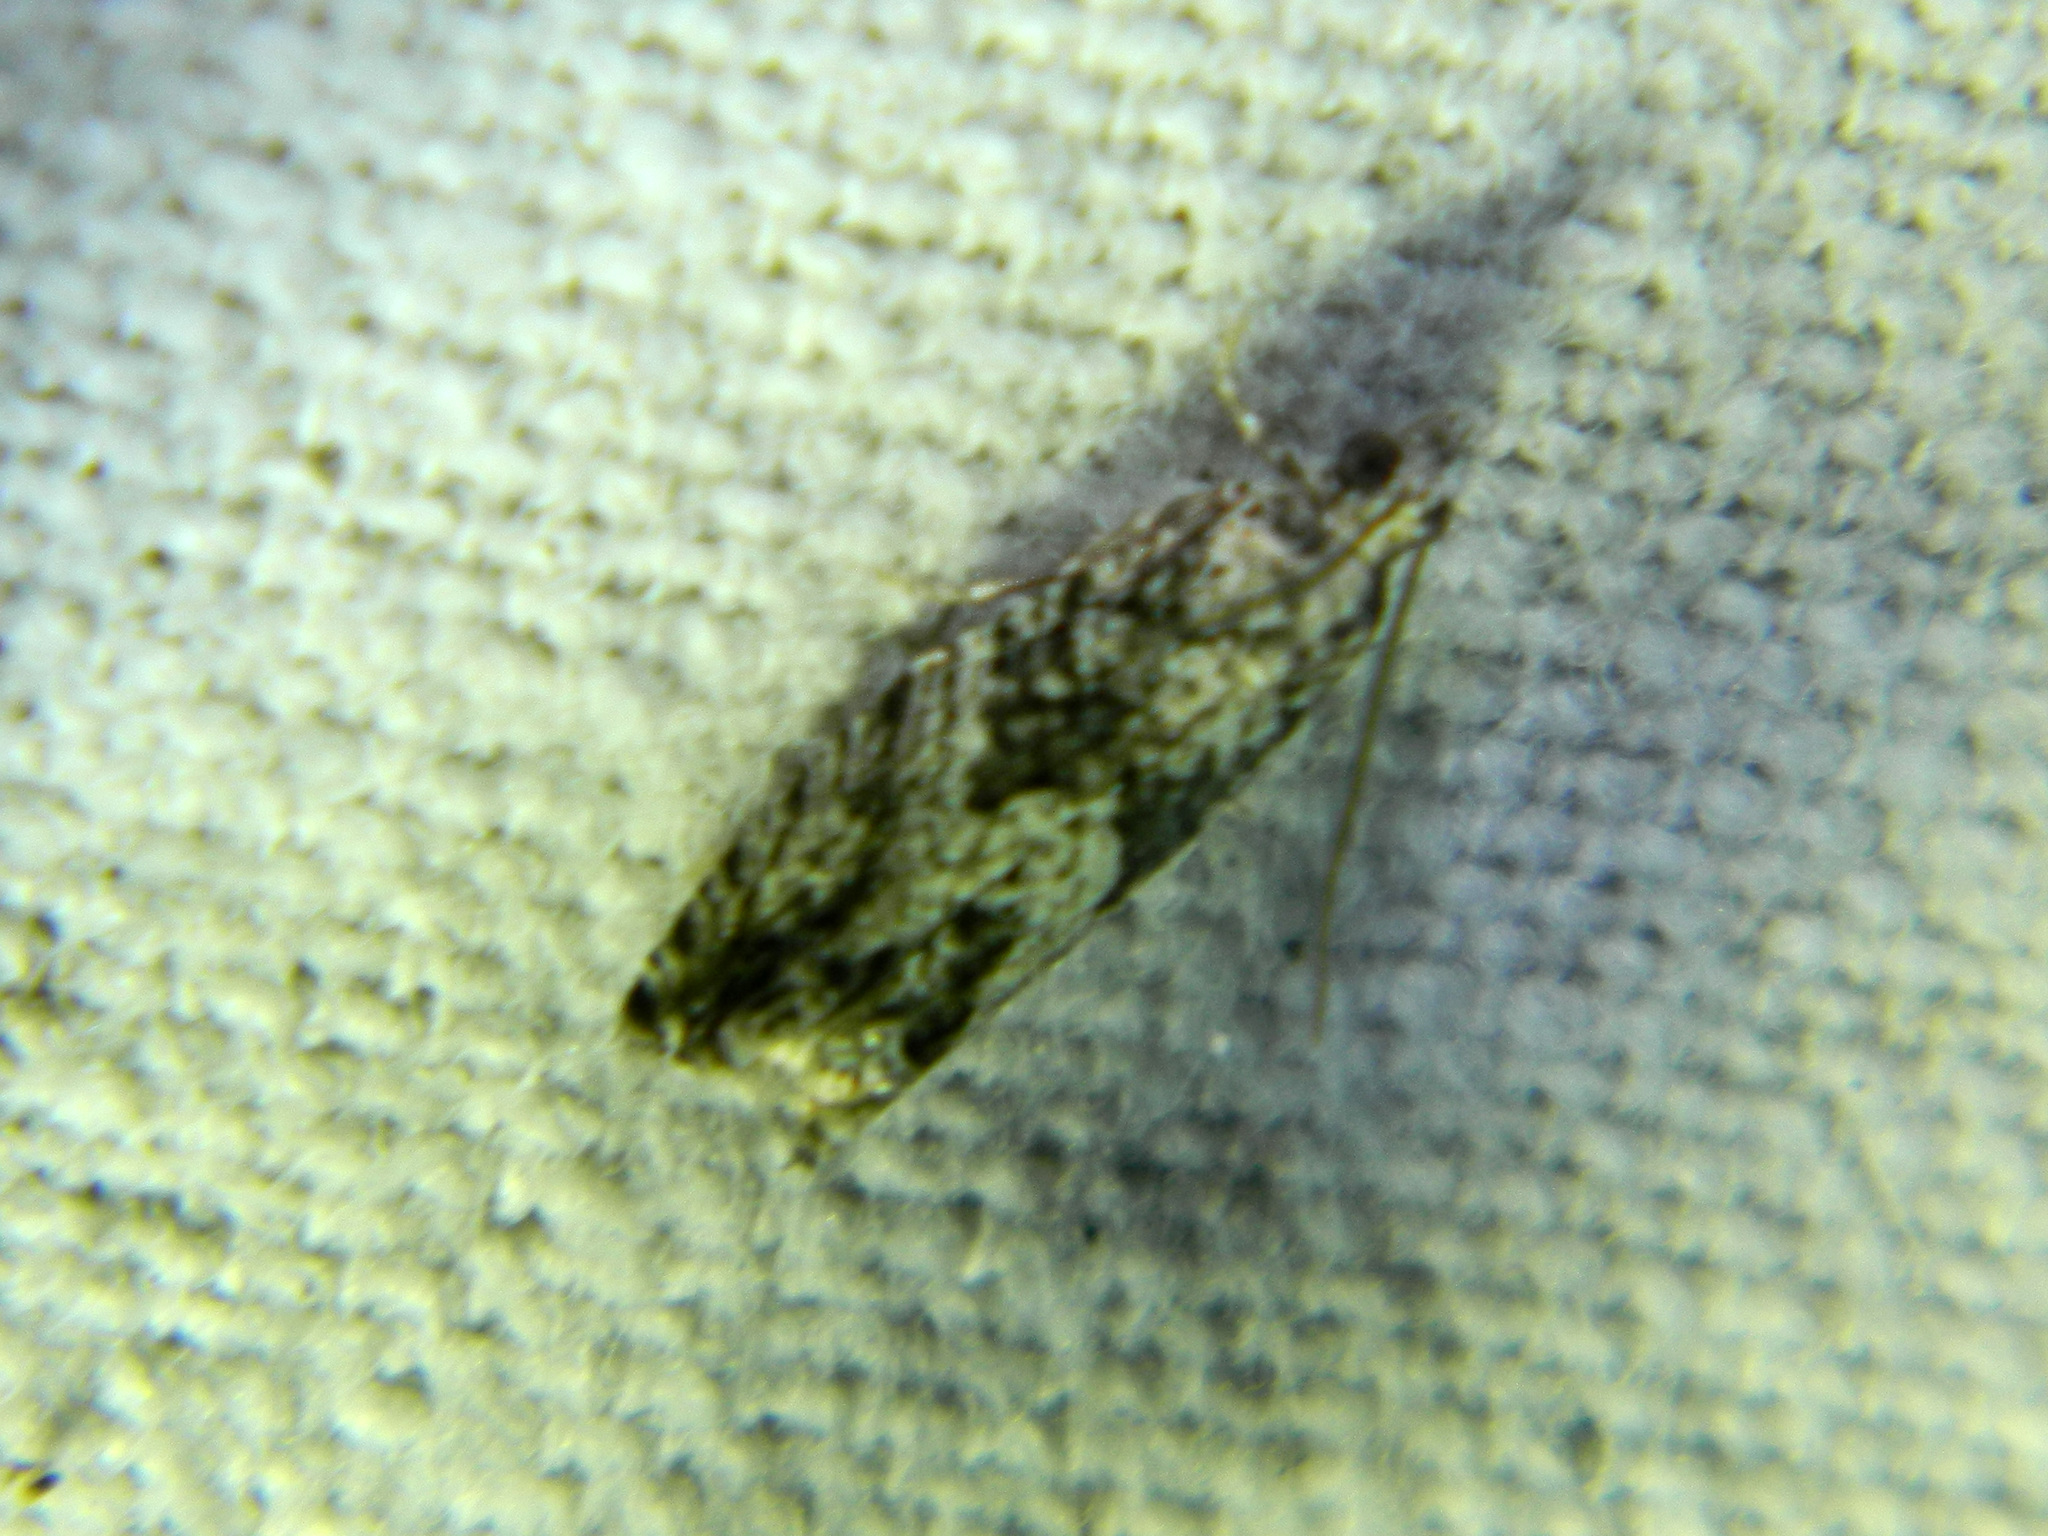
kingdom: Animalia
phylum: Arthropoda
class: Insecta
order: Lepidoptera
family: Tortricidae
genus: Epinotia
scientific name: Epinotia nisella
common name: Grey poplar bell
